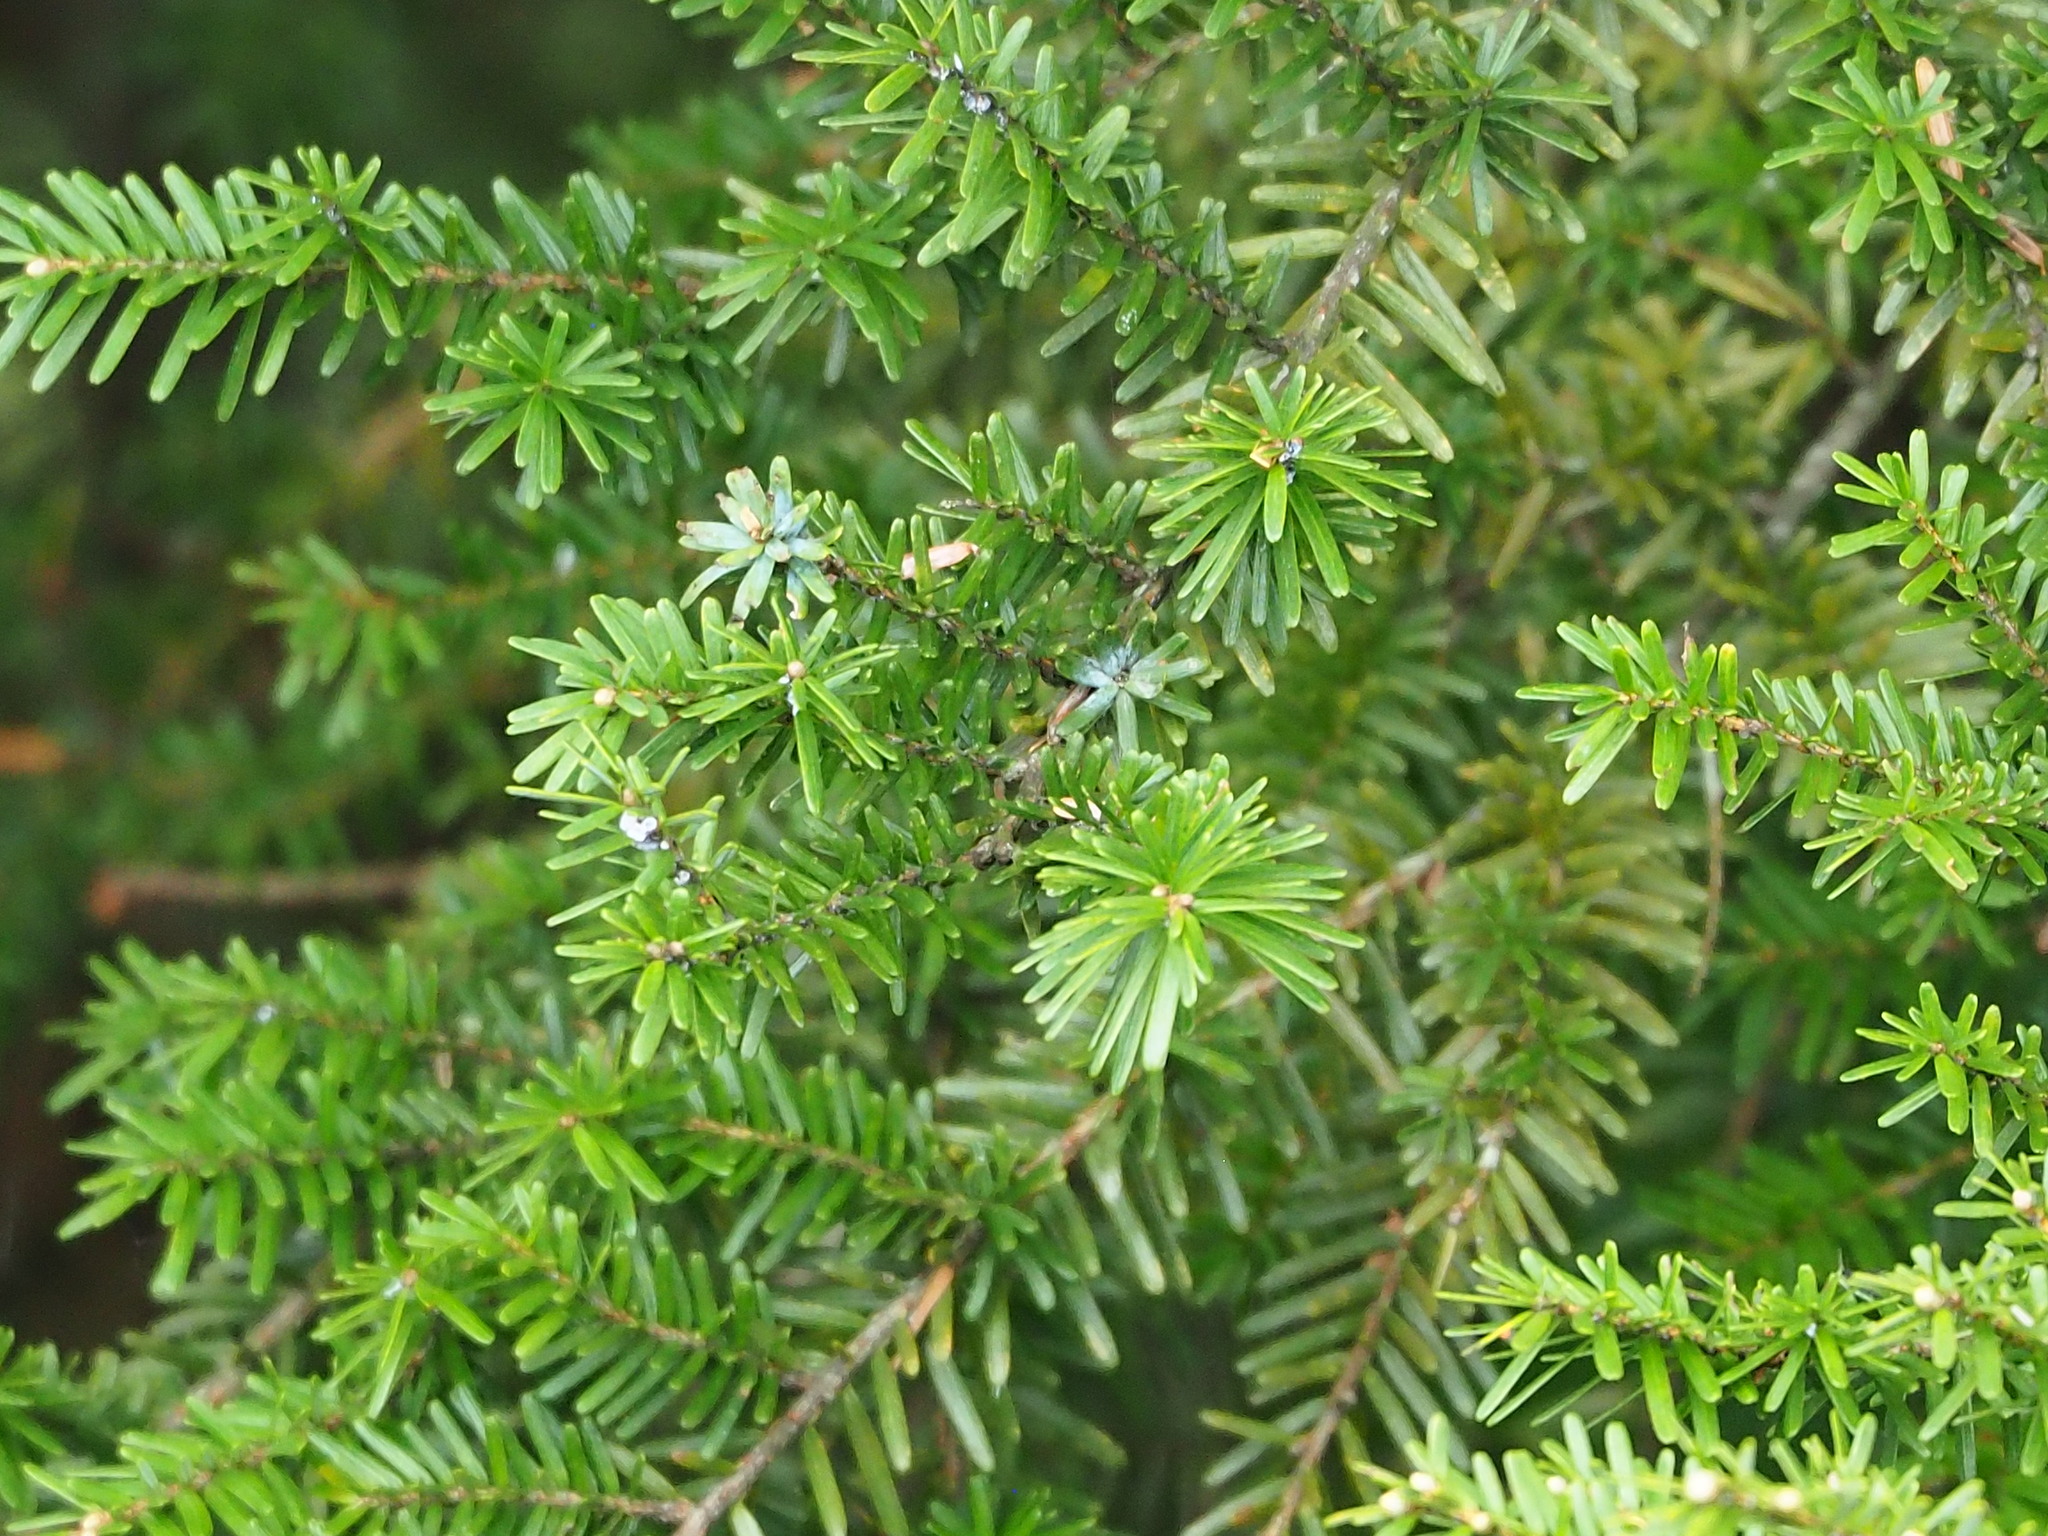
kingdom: Plantae
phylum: Tracheophyta
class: Pinopsida
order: Pinales
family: Pinaceae
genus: Tsuga
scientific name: Tsuga chinensis
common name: Chinese hemlock
